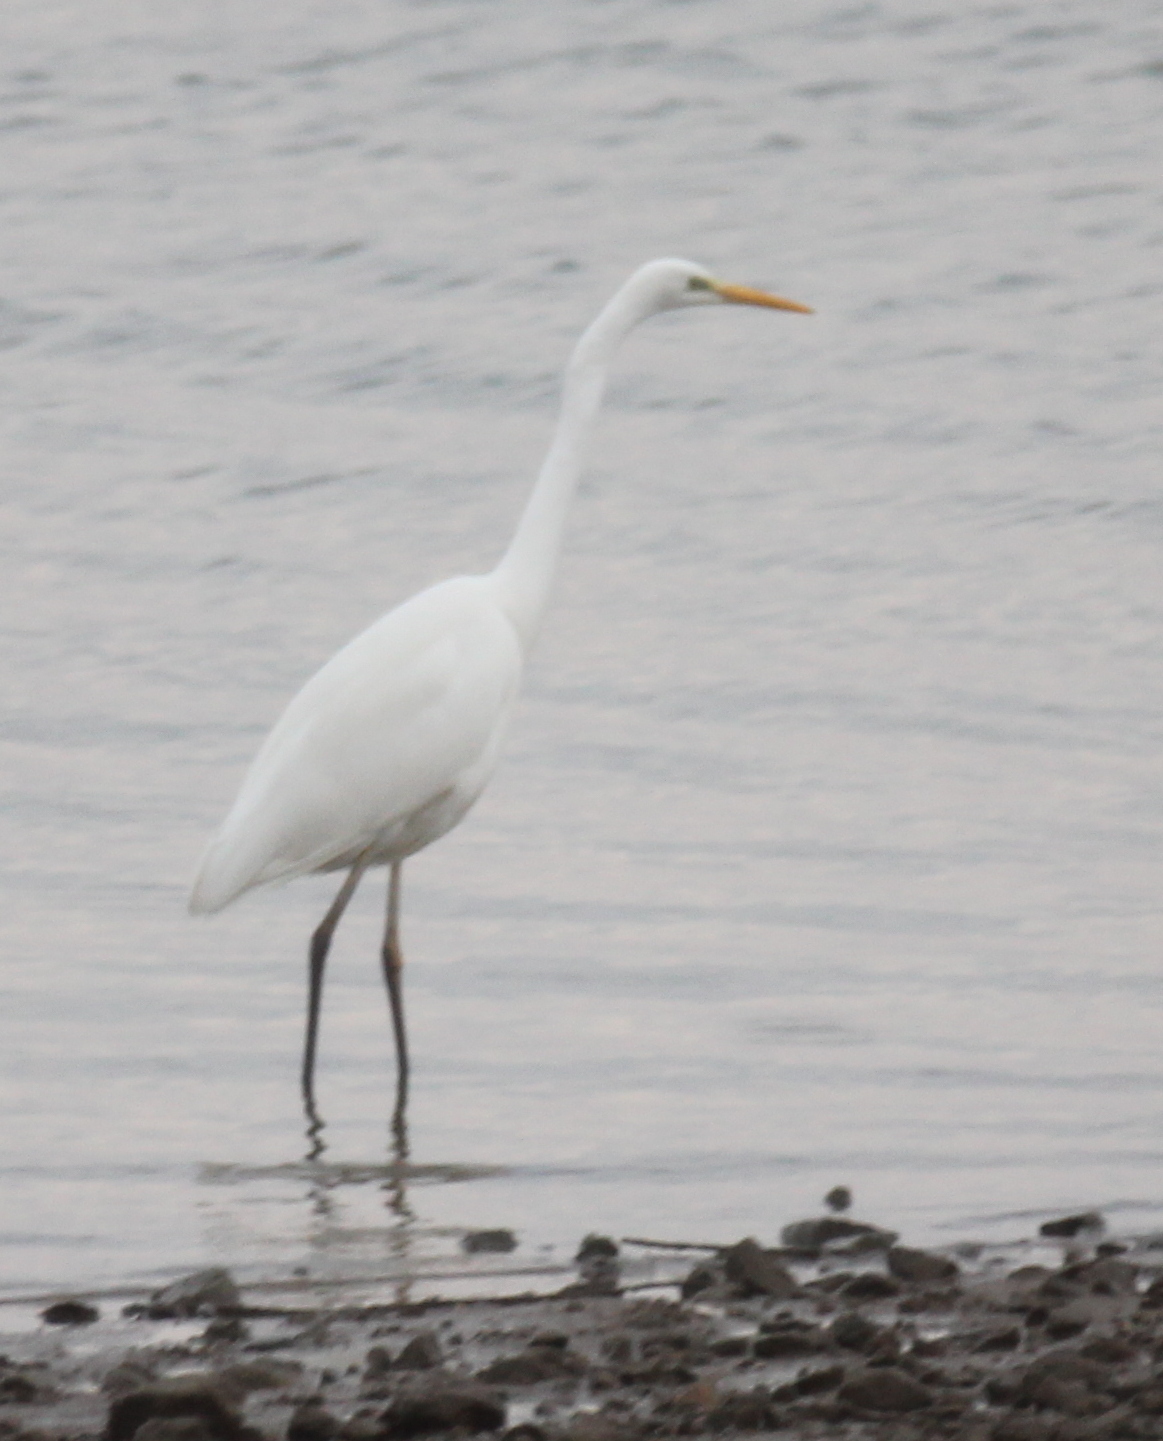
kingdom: Animalia
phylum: Chordata
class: Aves
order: Pelecaniformes
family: Ardeidae
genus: Ardea
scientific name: Ardea alba
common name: Great egret
